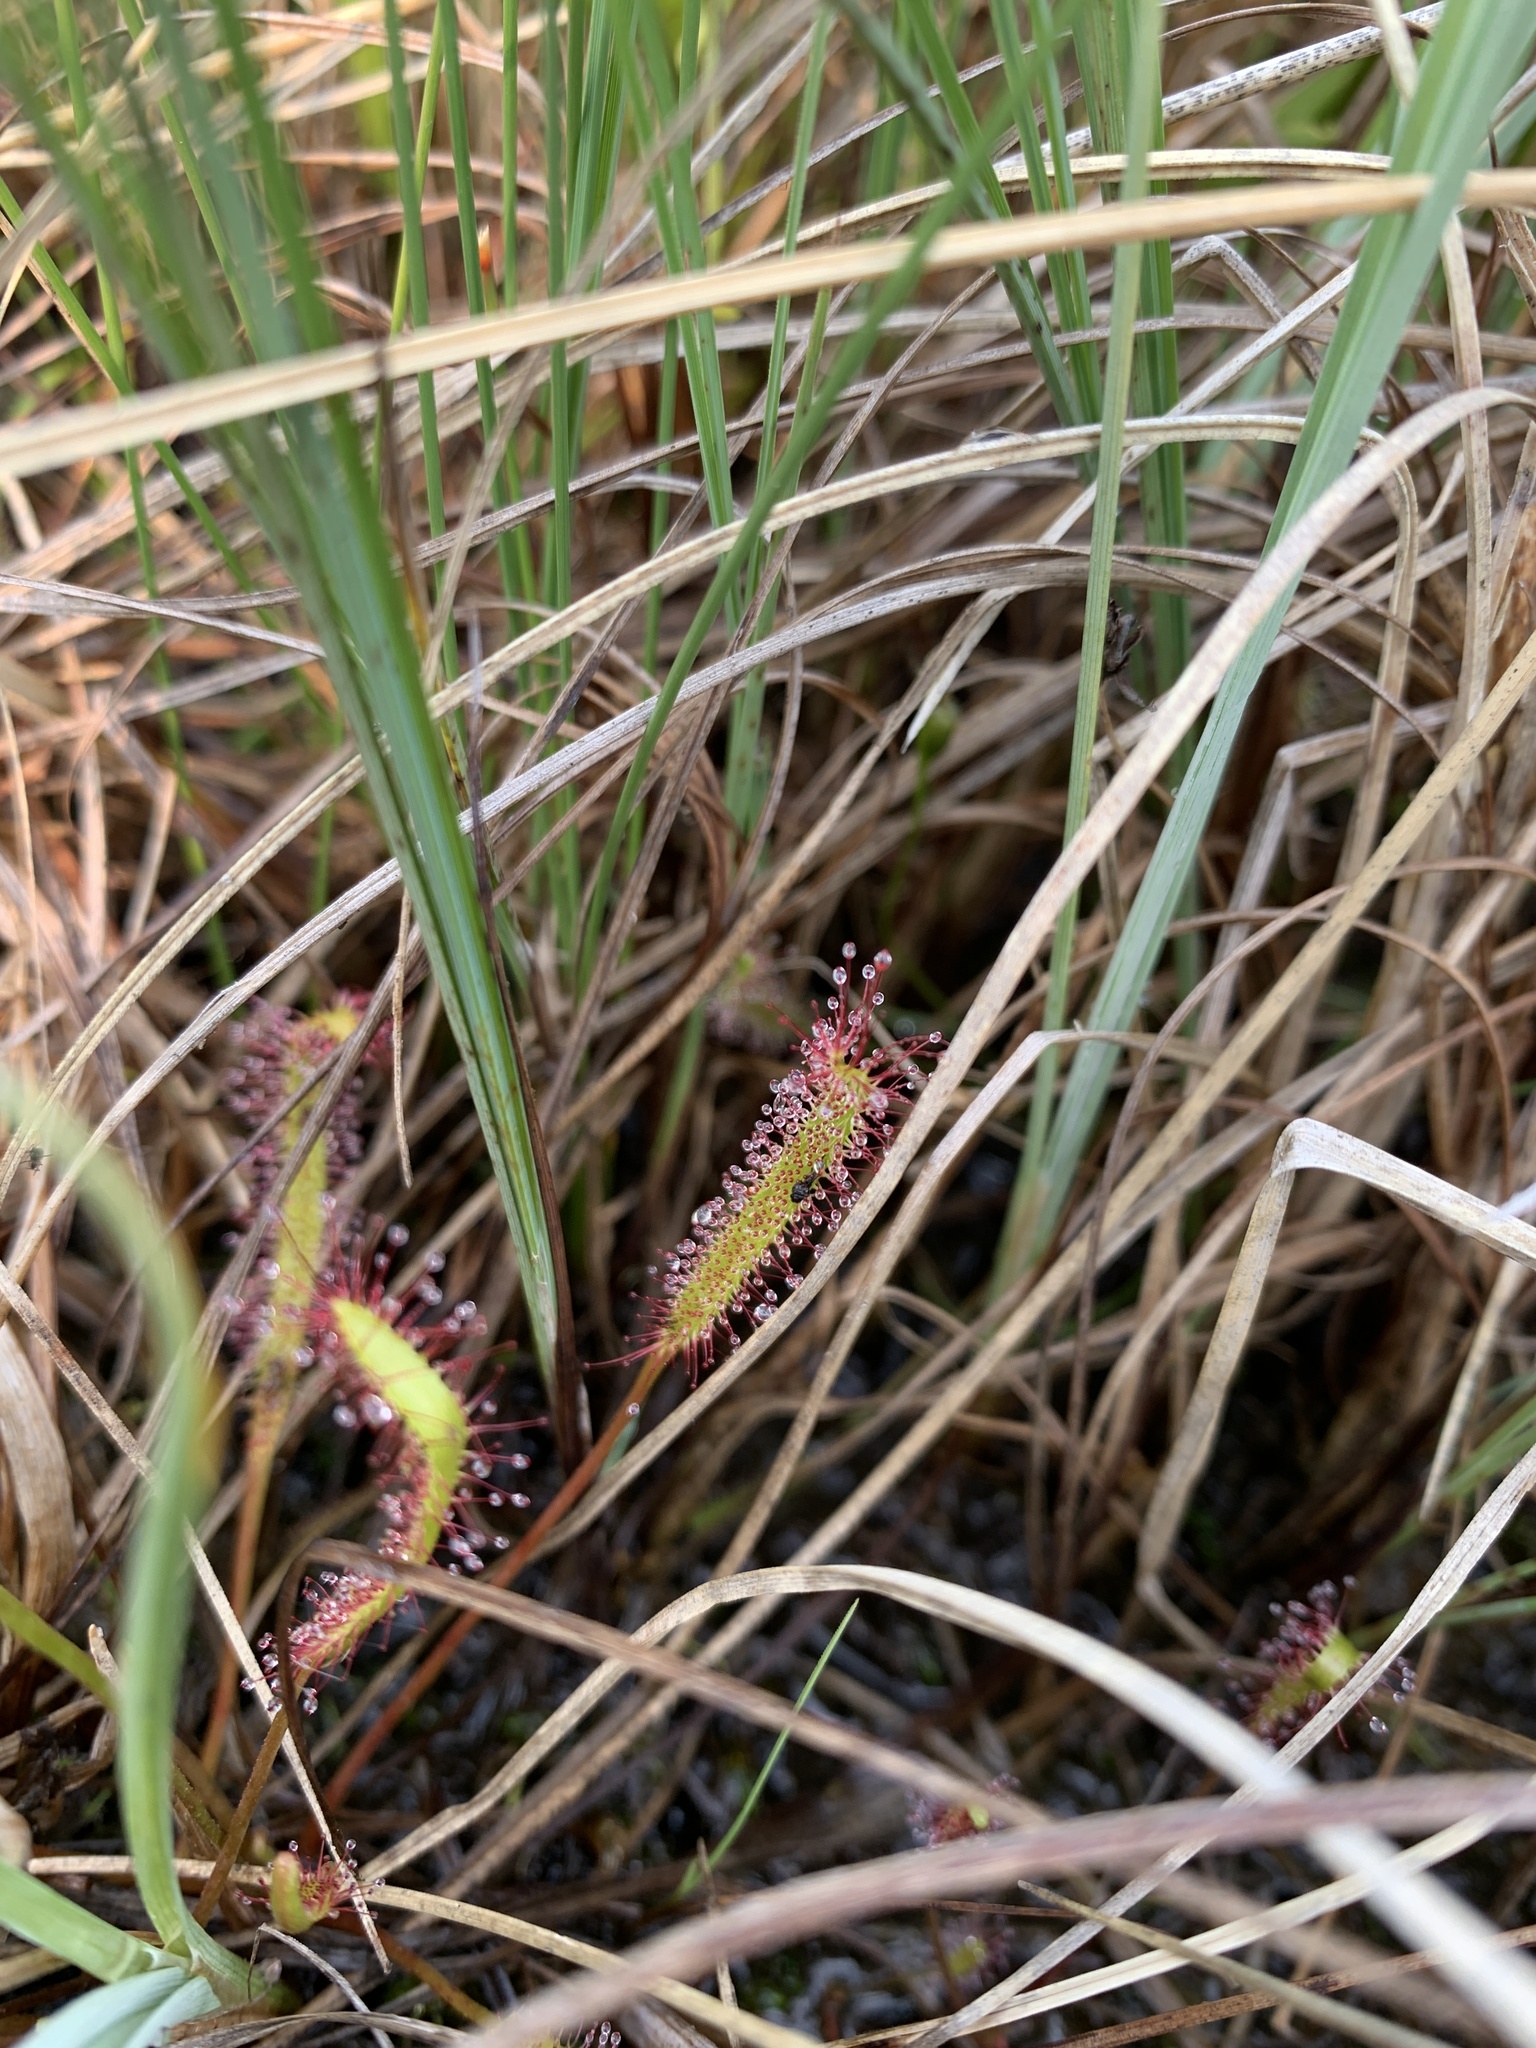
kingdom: Plantae
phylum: Tracheophyta
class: Magnoliopsida
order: Caryophyllales
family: Droseraceae
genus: Drosera
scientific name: Drosera linearis
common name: Linear-leaved sundew
